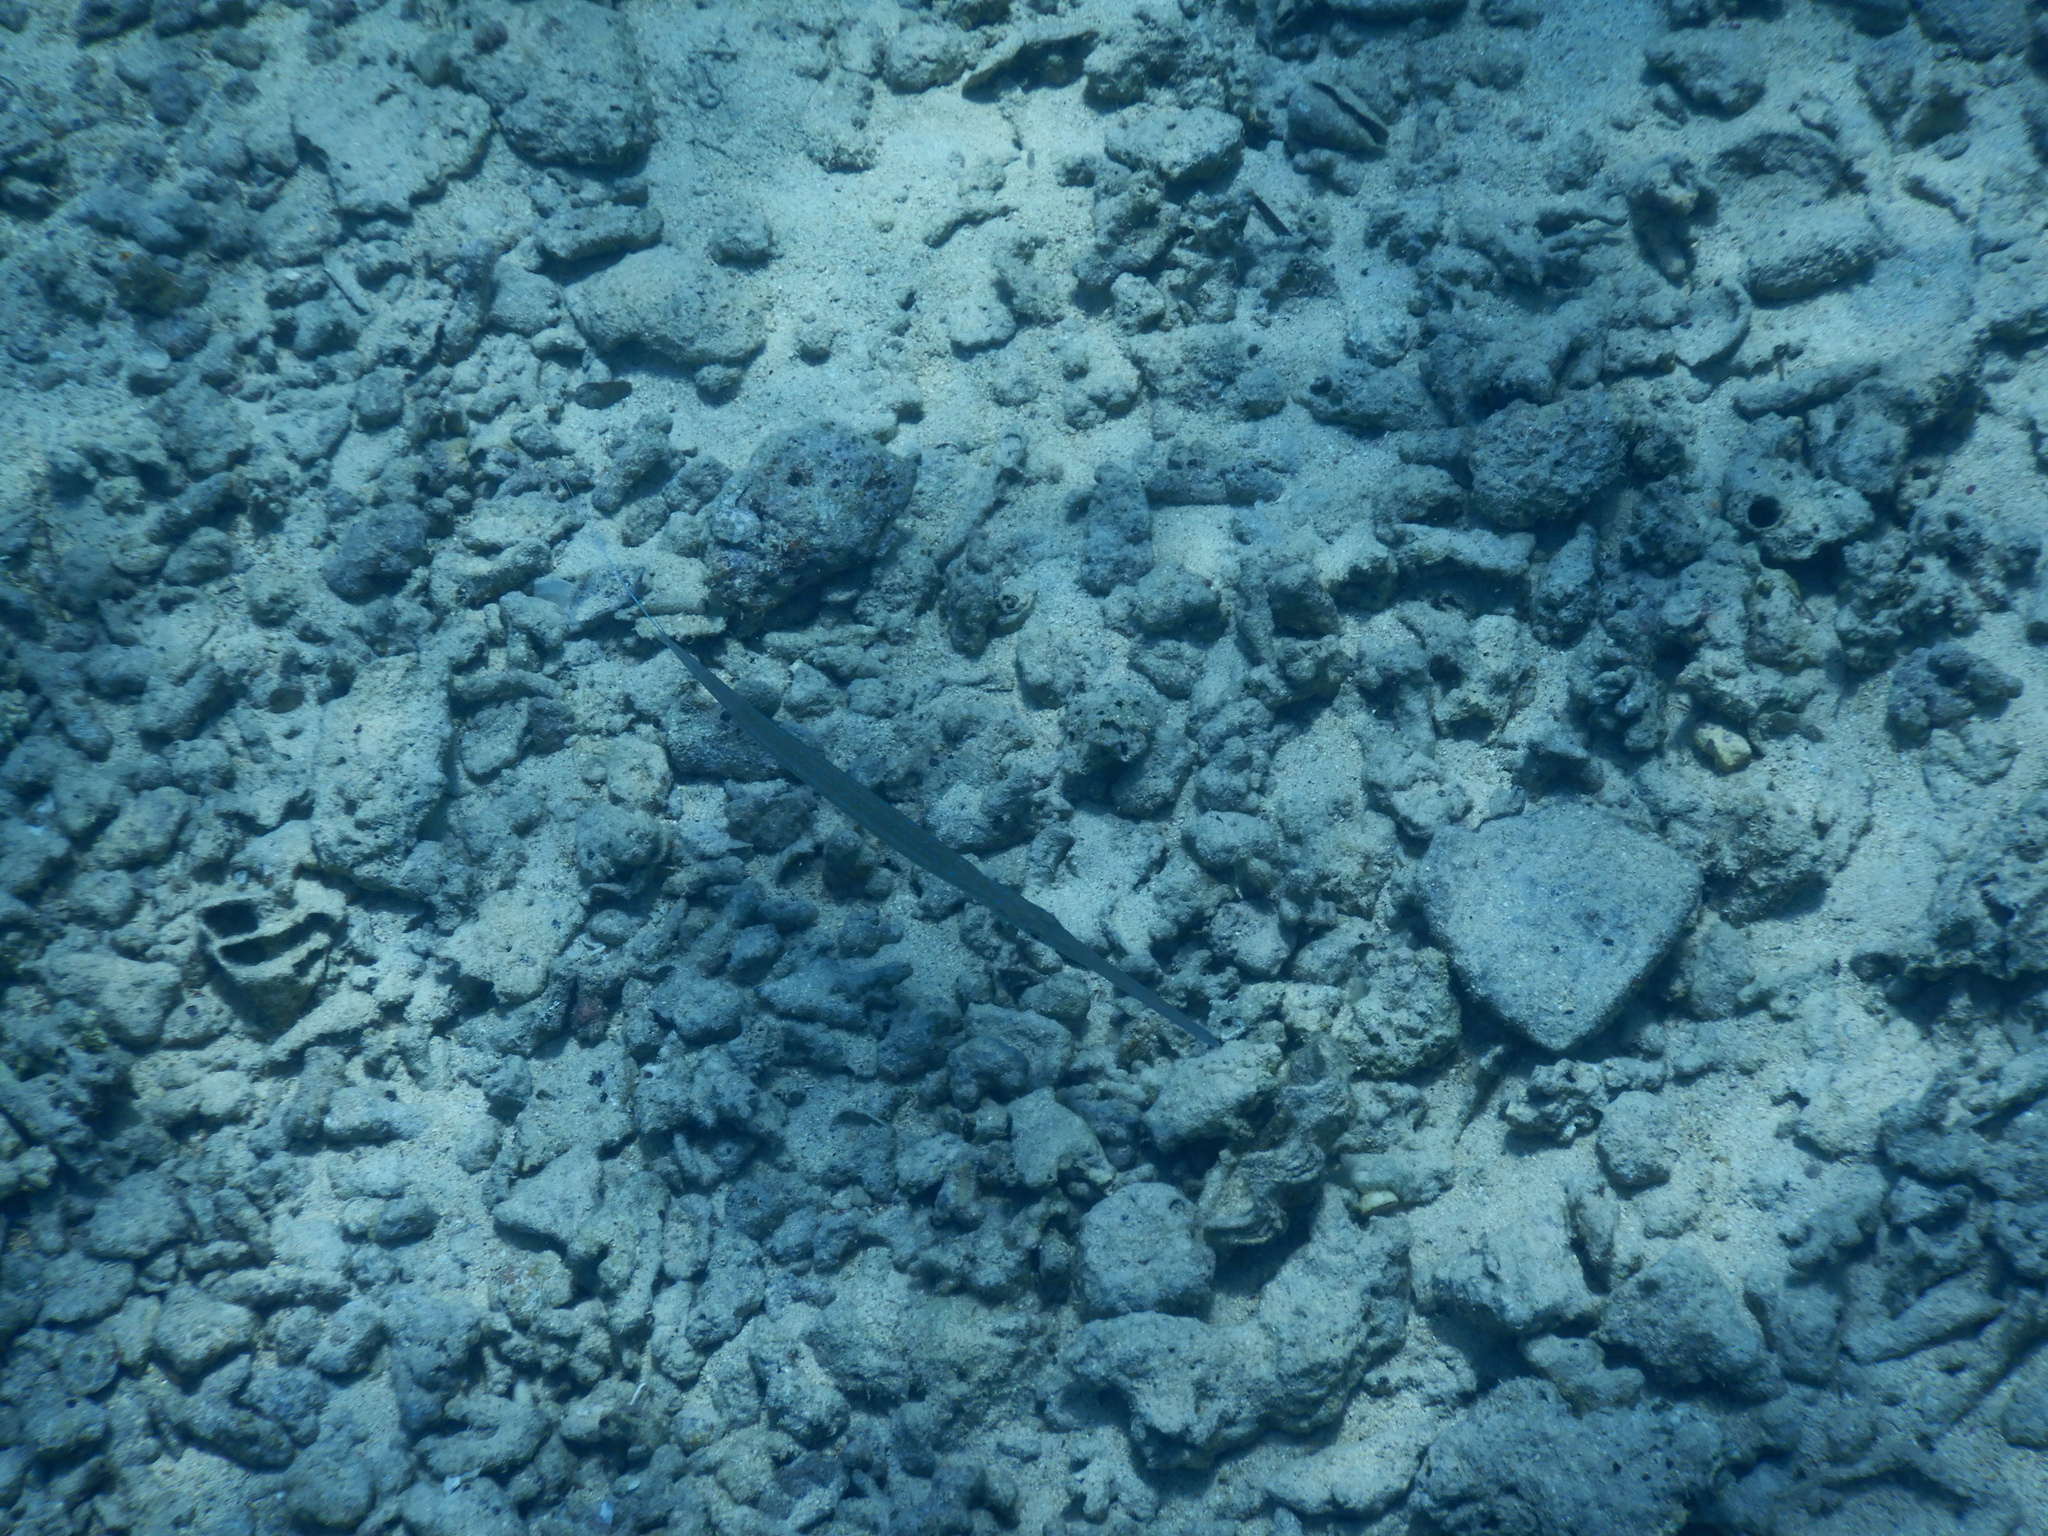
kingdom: Animalia
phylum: Chordata
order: Syngnathiformes
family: Fistulariidae
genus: Fistularia
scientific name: Fistularia commersonii
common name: Bluespotted cornetfish
